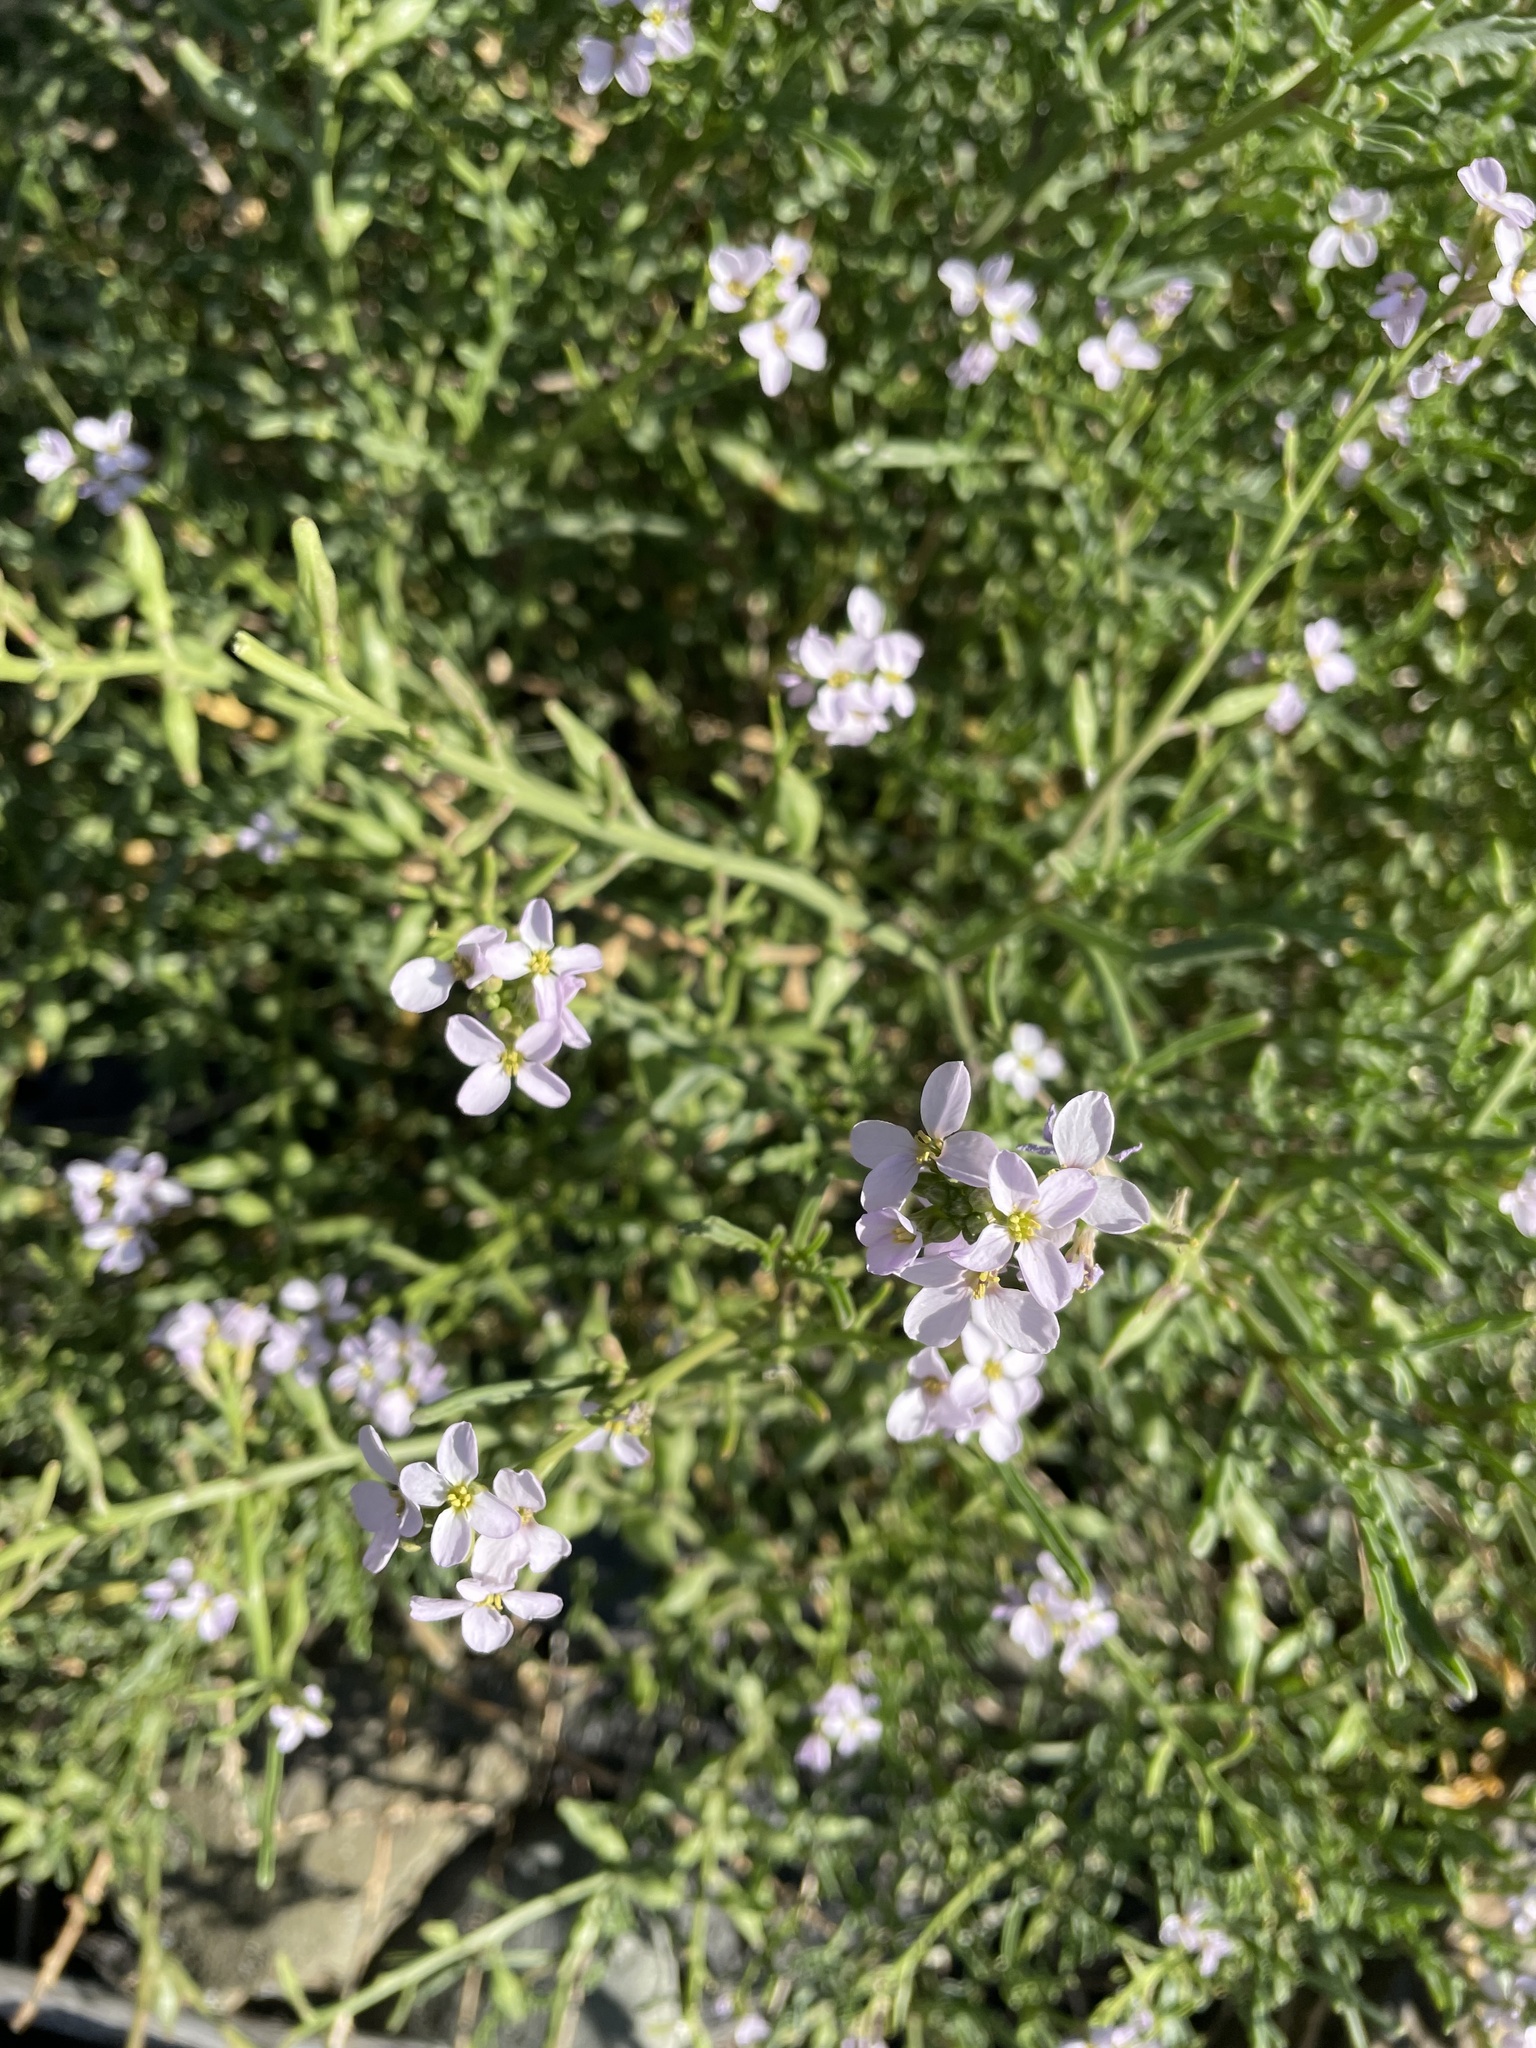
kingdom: Plantae
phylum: Tracheophyta
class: Magnoliopsida
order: Brassicales
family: Brassicaceae
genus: Cakile
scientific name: Cakile maritima
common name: Sea rocket
